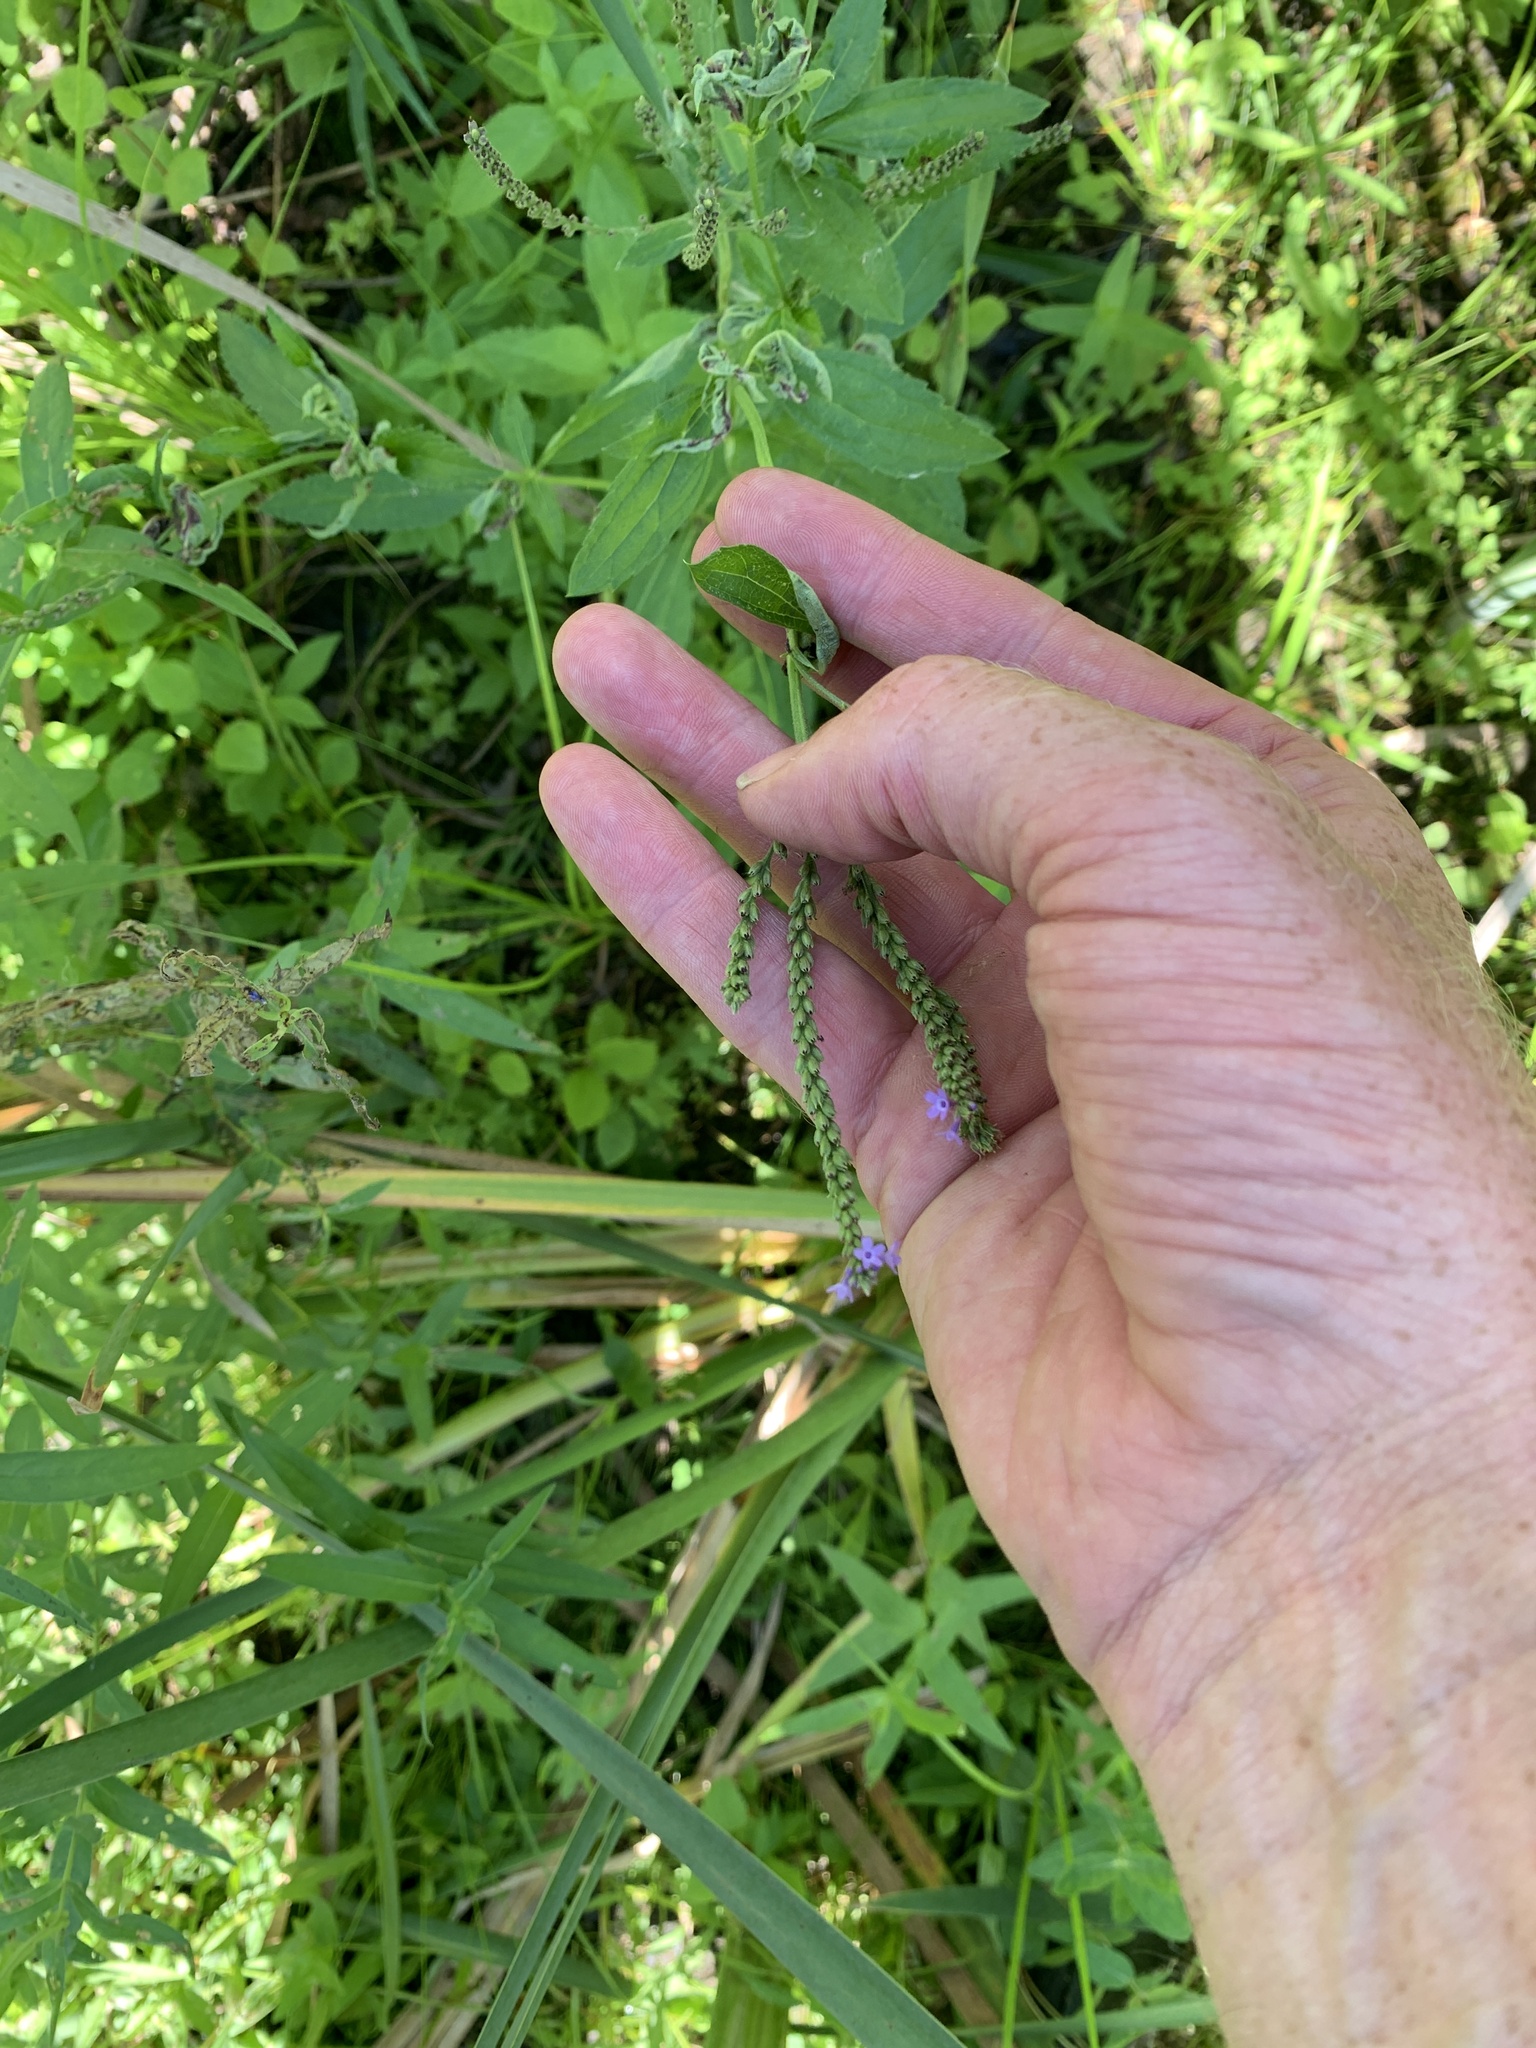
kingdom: Plantae
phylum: Tracheophyta
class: Magnoliopsida
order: Lamiales
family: Verbenaceae
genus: Verbena
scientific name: Verbena hastata
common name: American blue vervain
